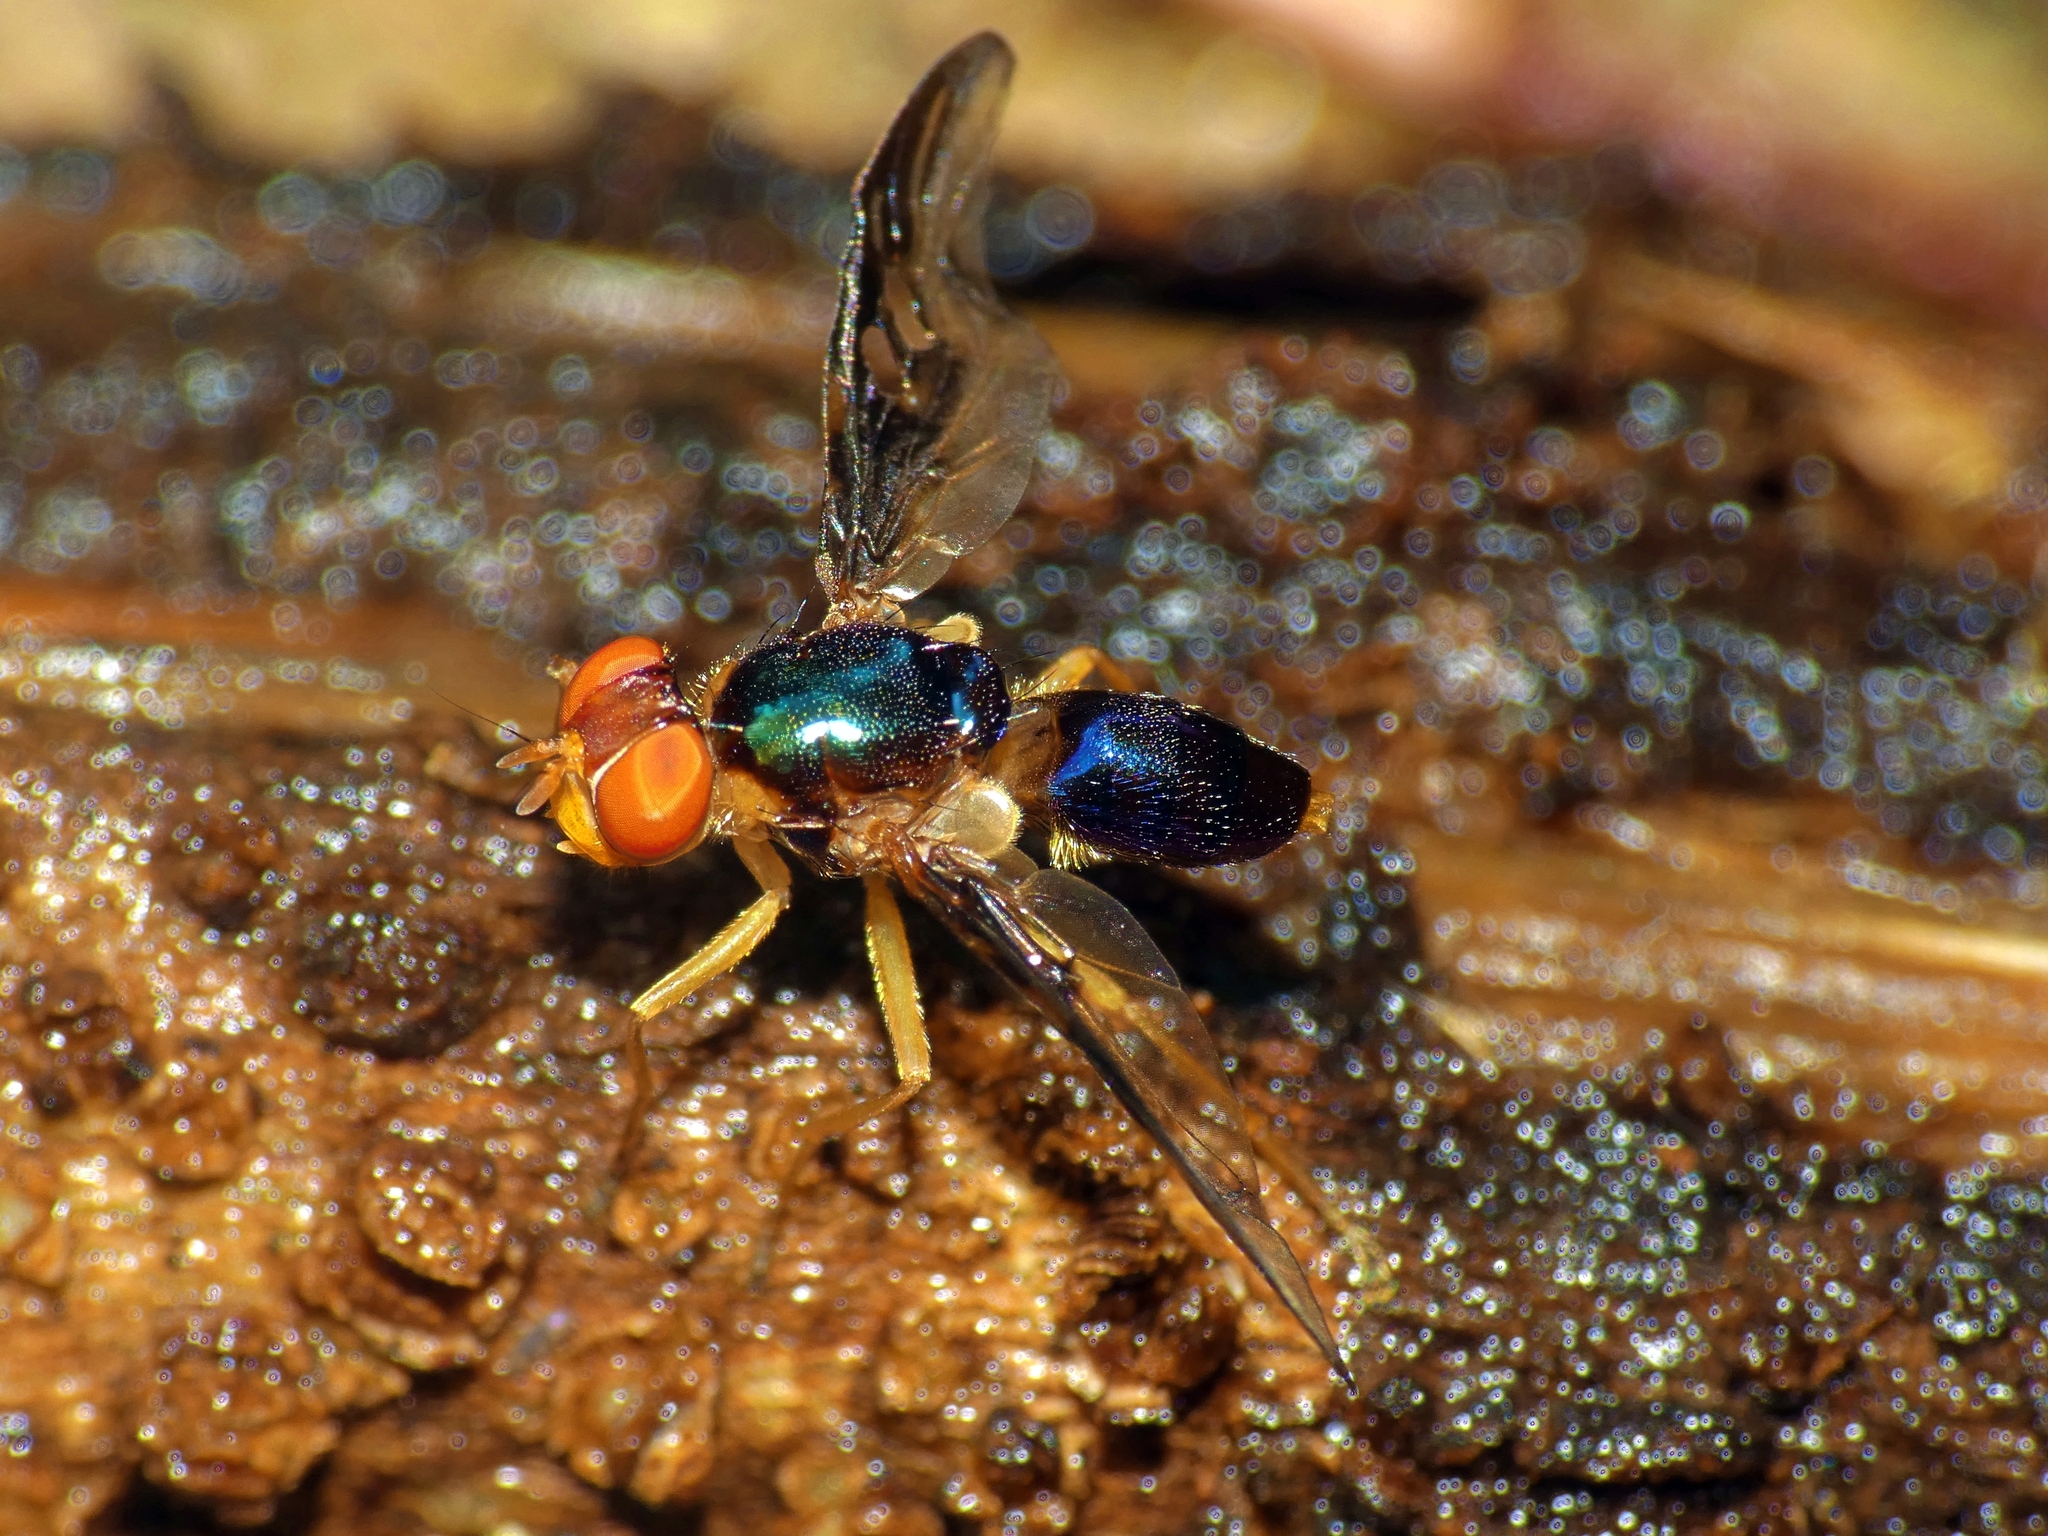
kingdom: Animalia
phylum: Arthropoda
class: Insecta
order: Diptera
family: Platystomatidae
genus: Lamprogaster
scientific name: Lamprogaster stenoparia
